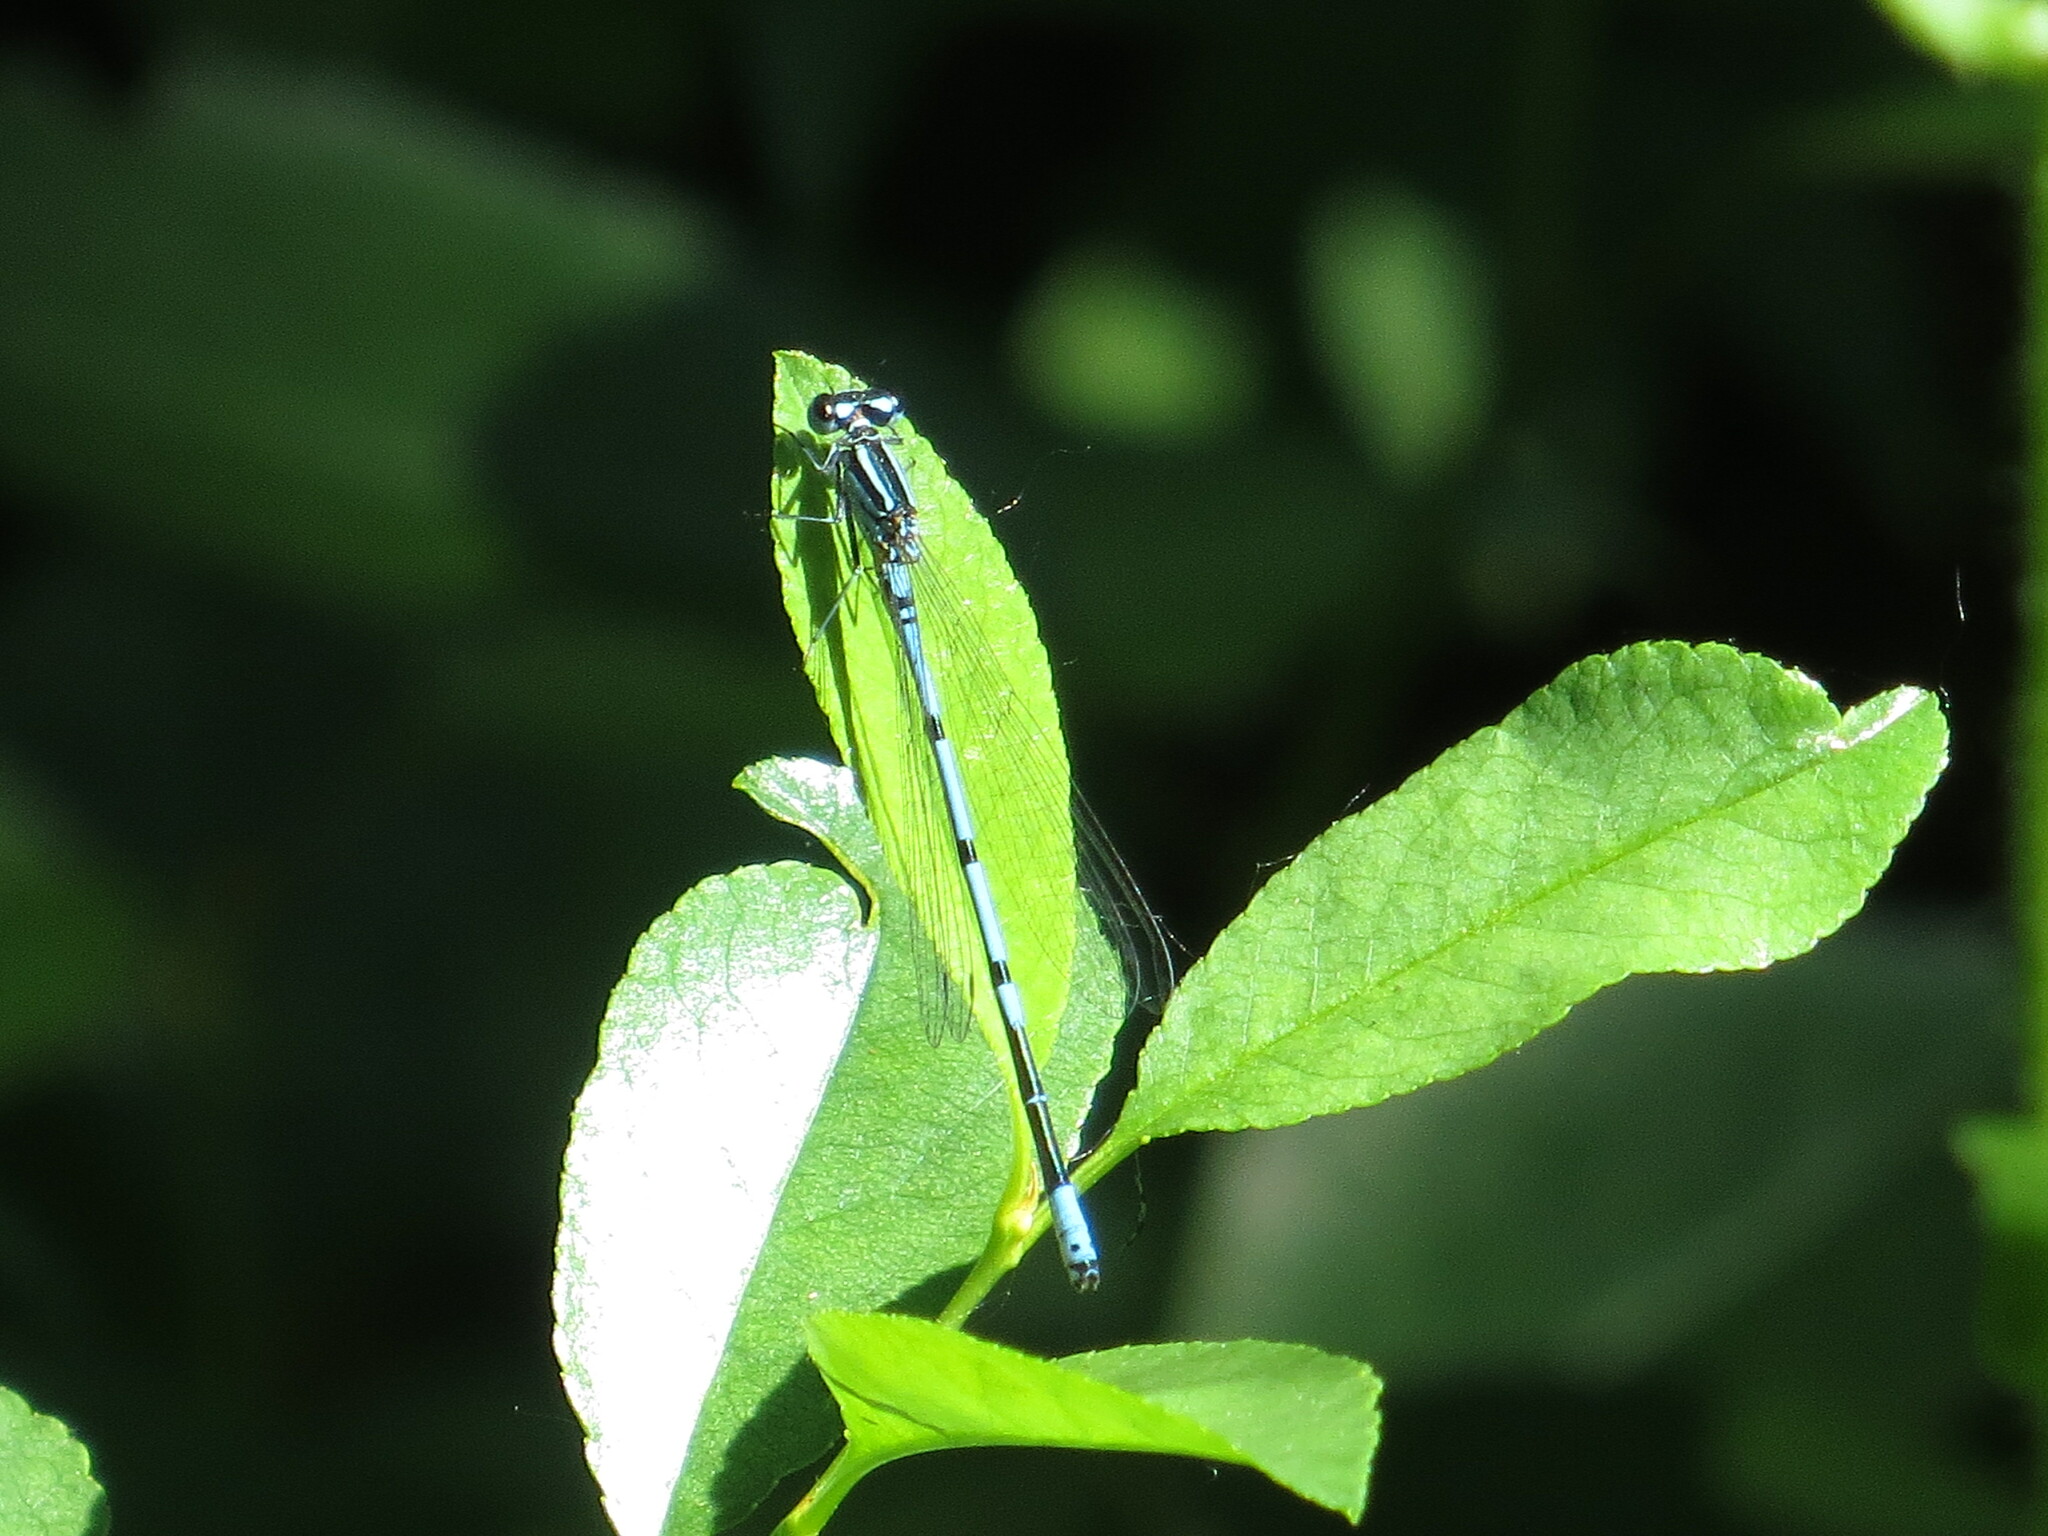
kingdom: Animalia
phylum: Arthropoda
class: Insecta
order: Odonata
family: Coenagrionidae
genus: Coenagrion
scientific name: Coenagrion puella
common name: Azure damselfly
